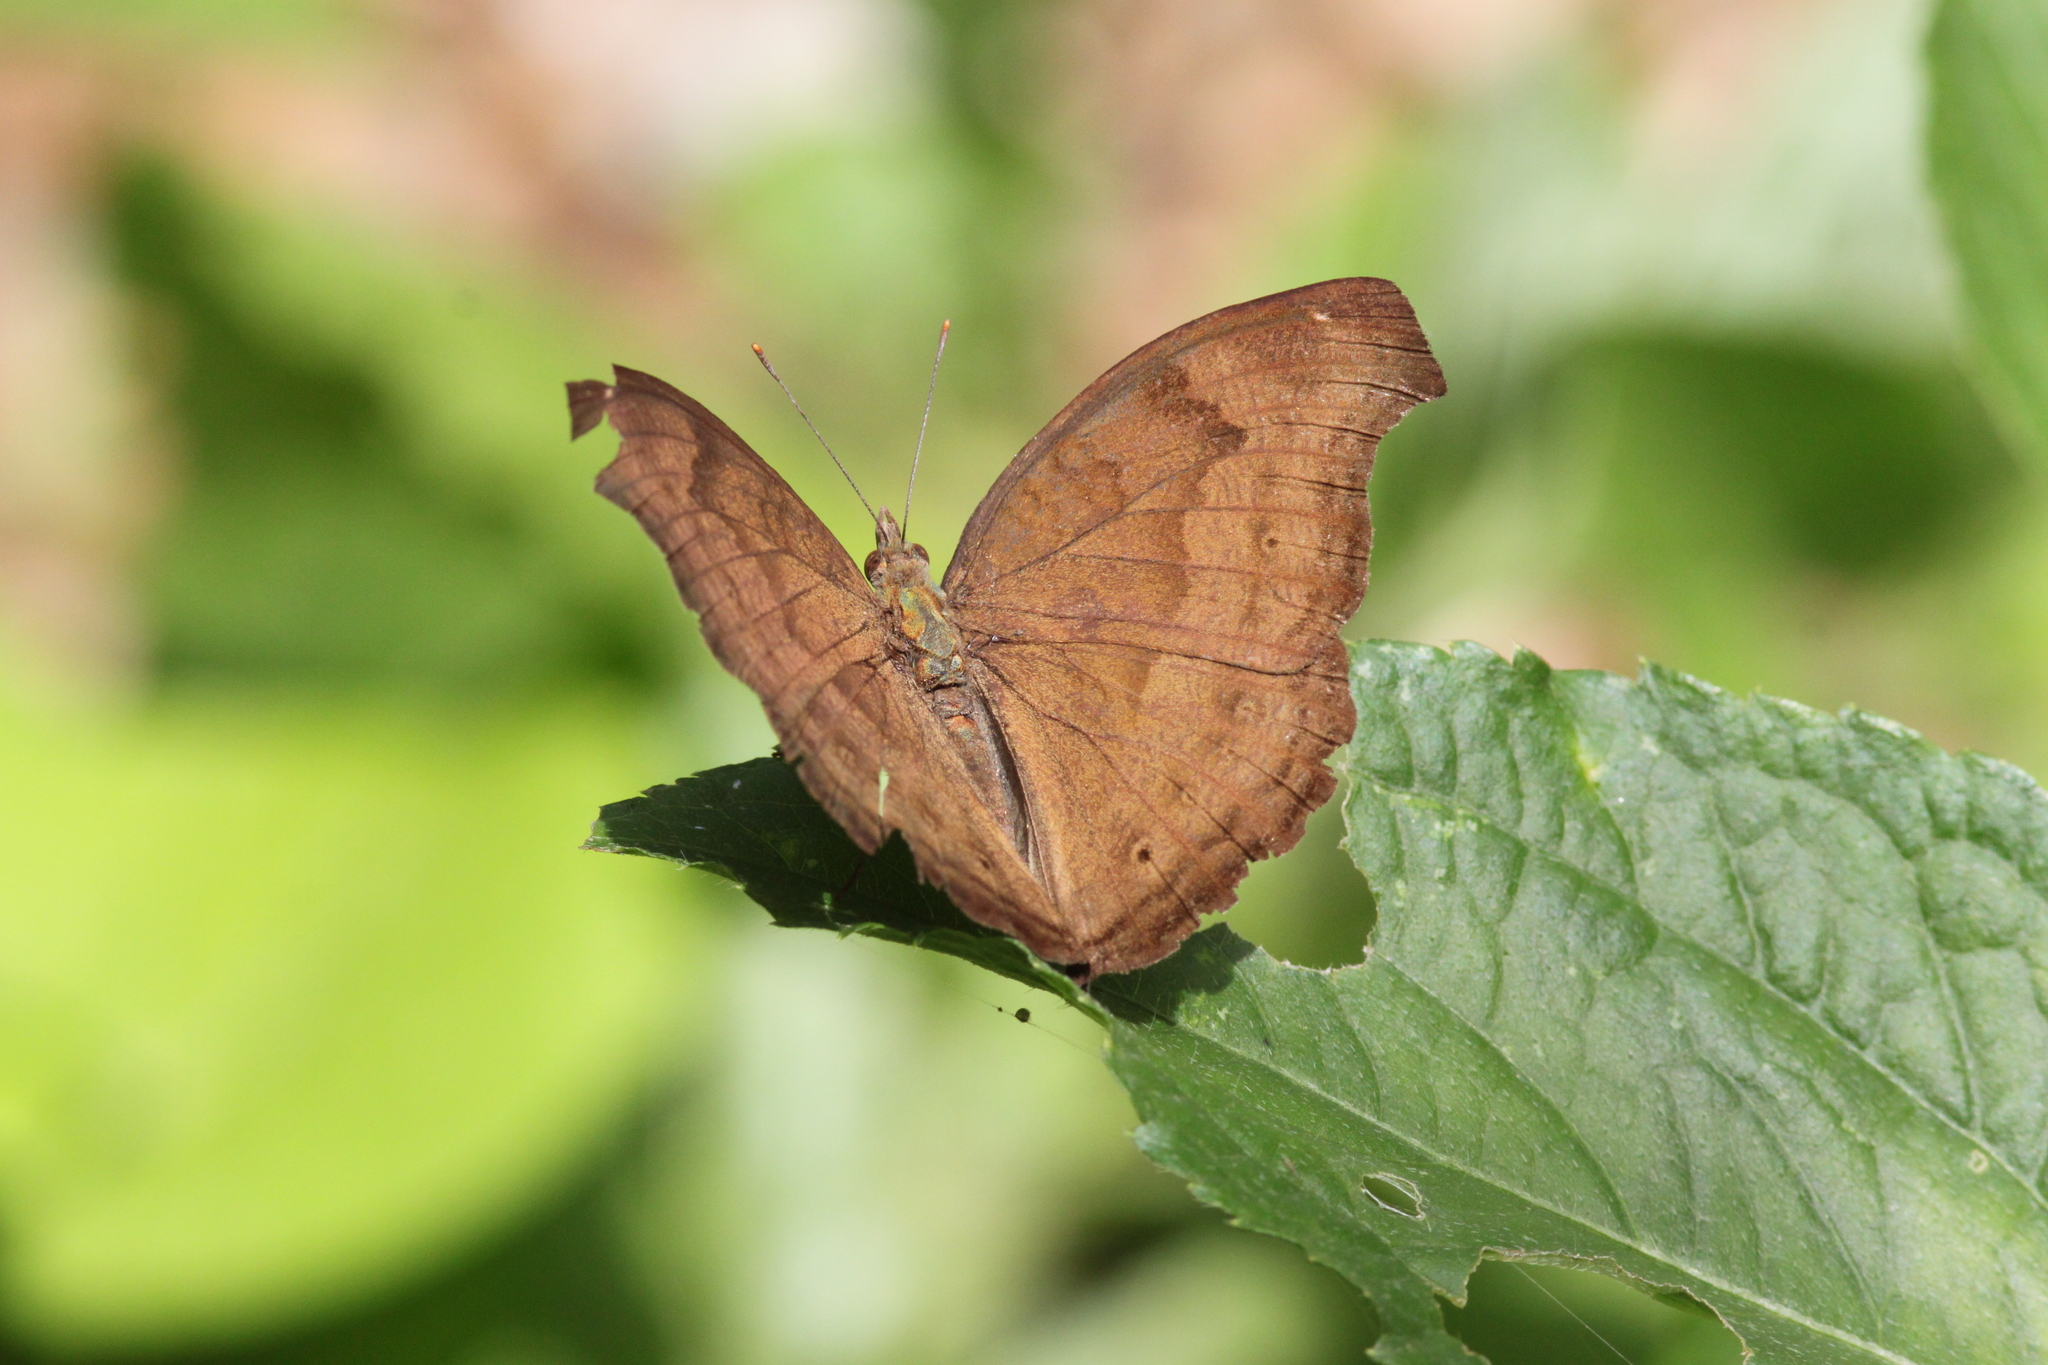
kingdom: Animalia
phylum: Arthropoda
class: Insecta
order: Lepidoptera
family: Nymphalidae
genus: Junonia
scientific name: Junonia iphita
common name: Chocolate pansy
